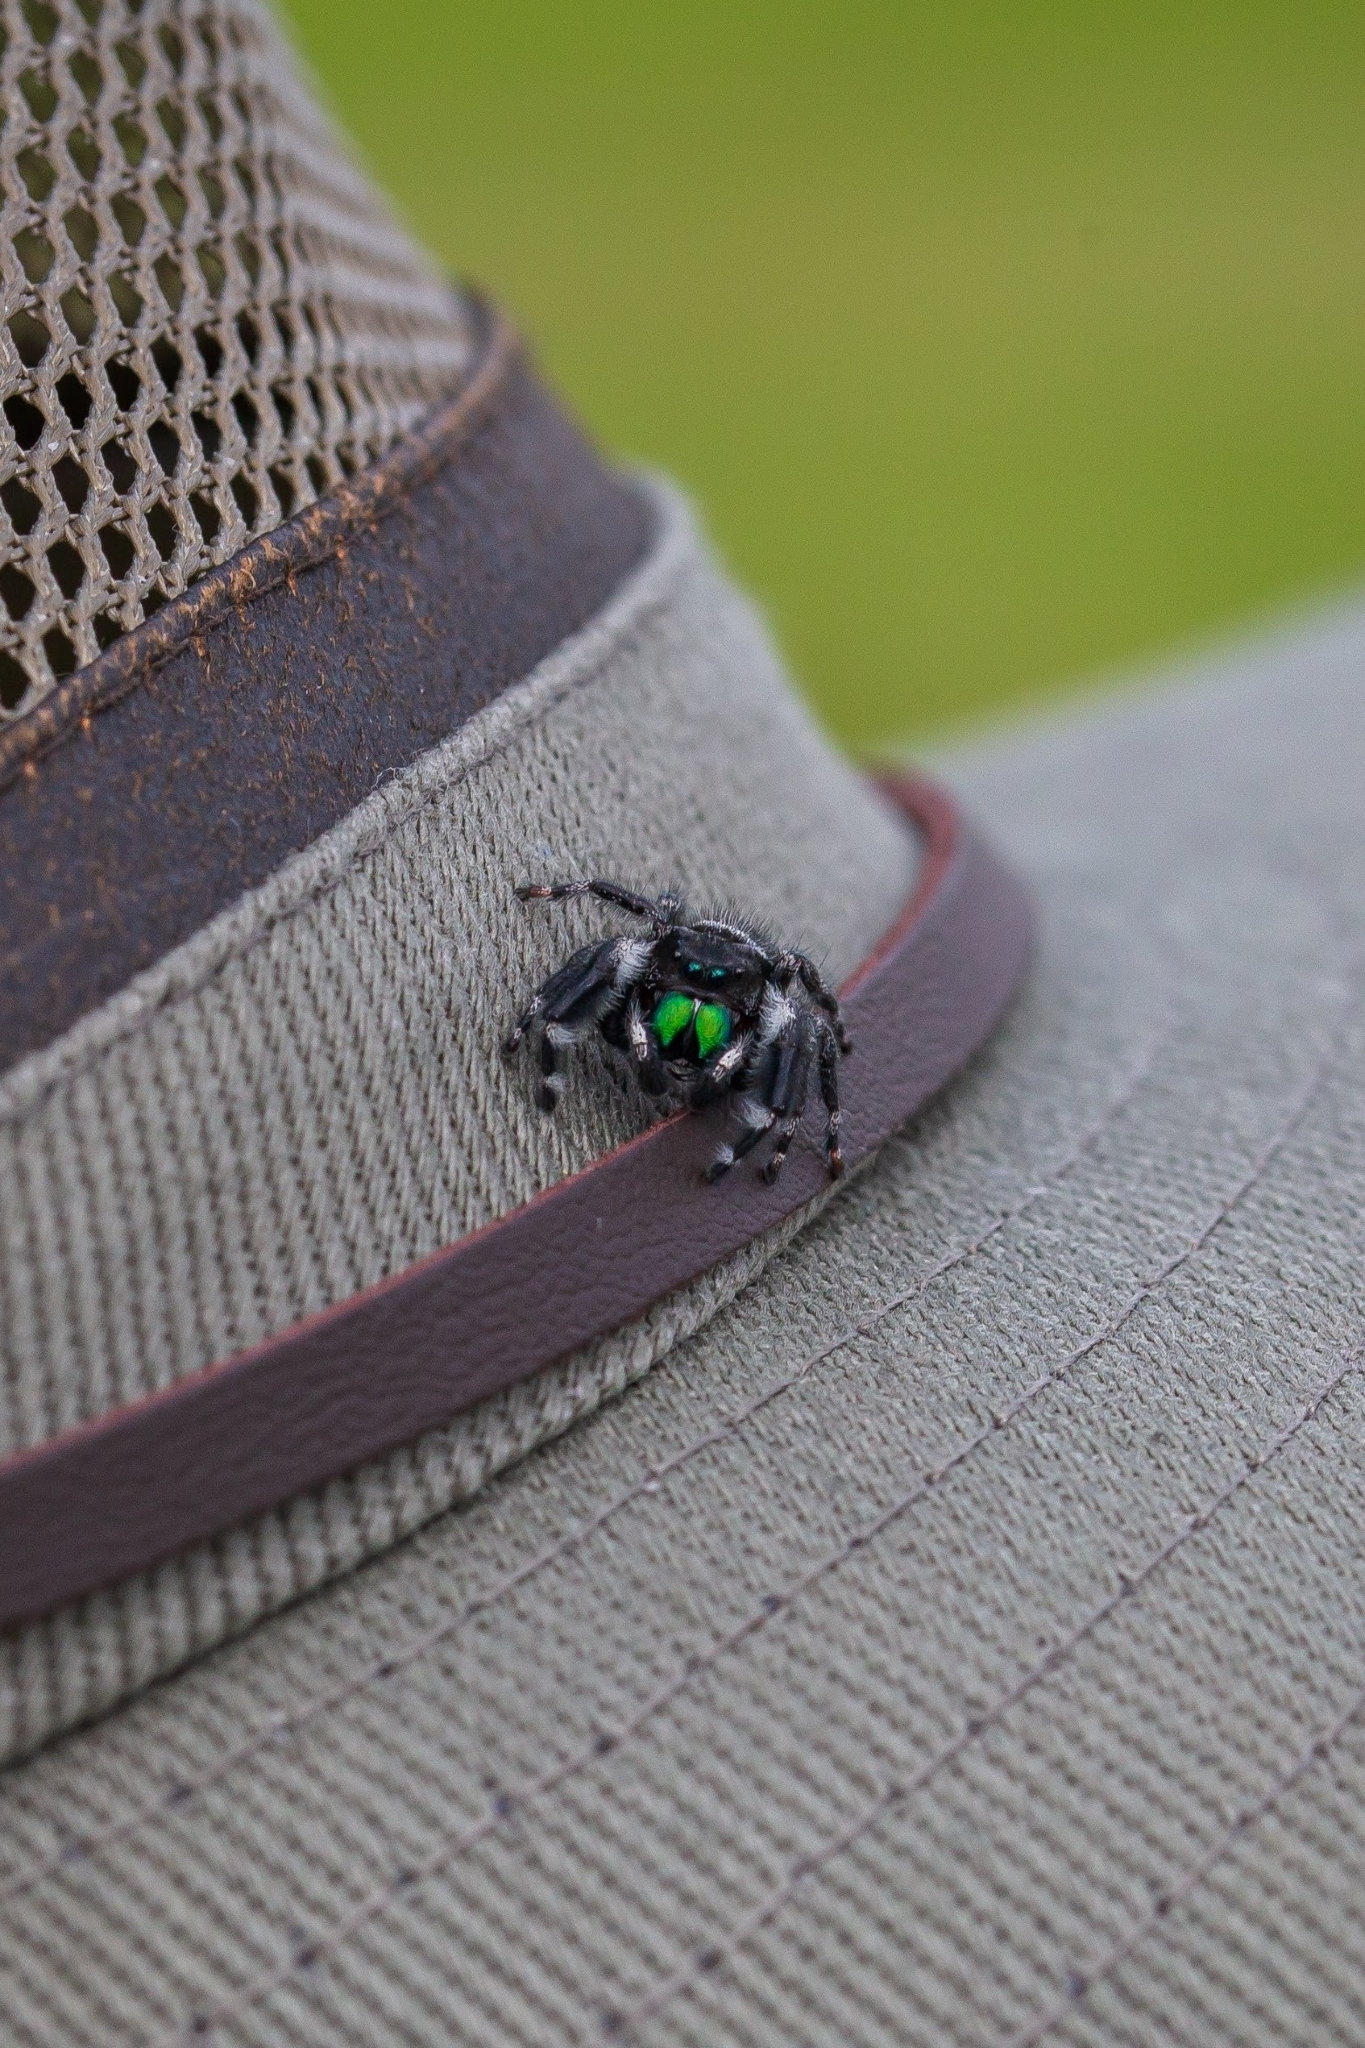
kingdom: Animalia
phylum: Arthropoda
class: Arachnida
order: Araneae
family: Salticidae
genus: Phidippus
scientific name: Phidippus audax
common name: Bold jumper
